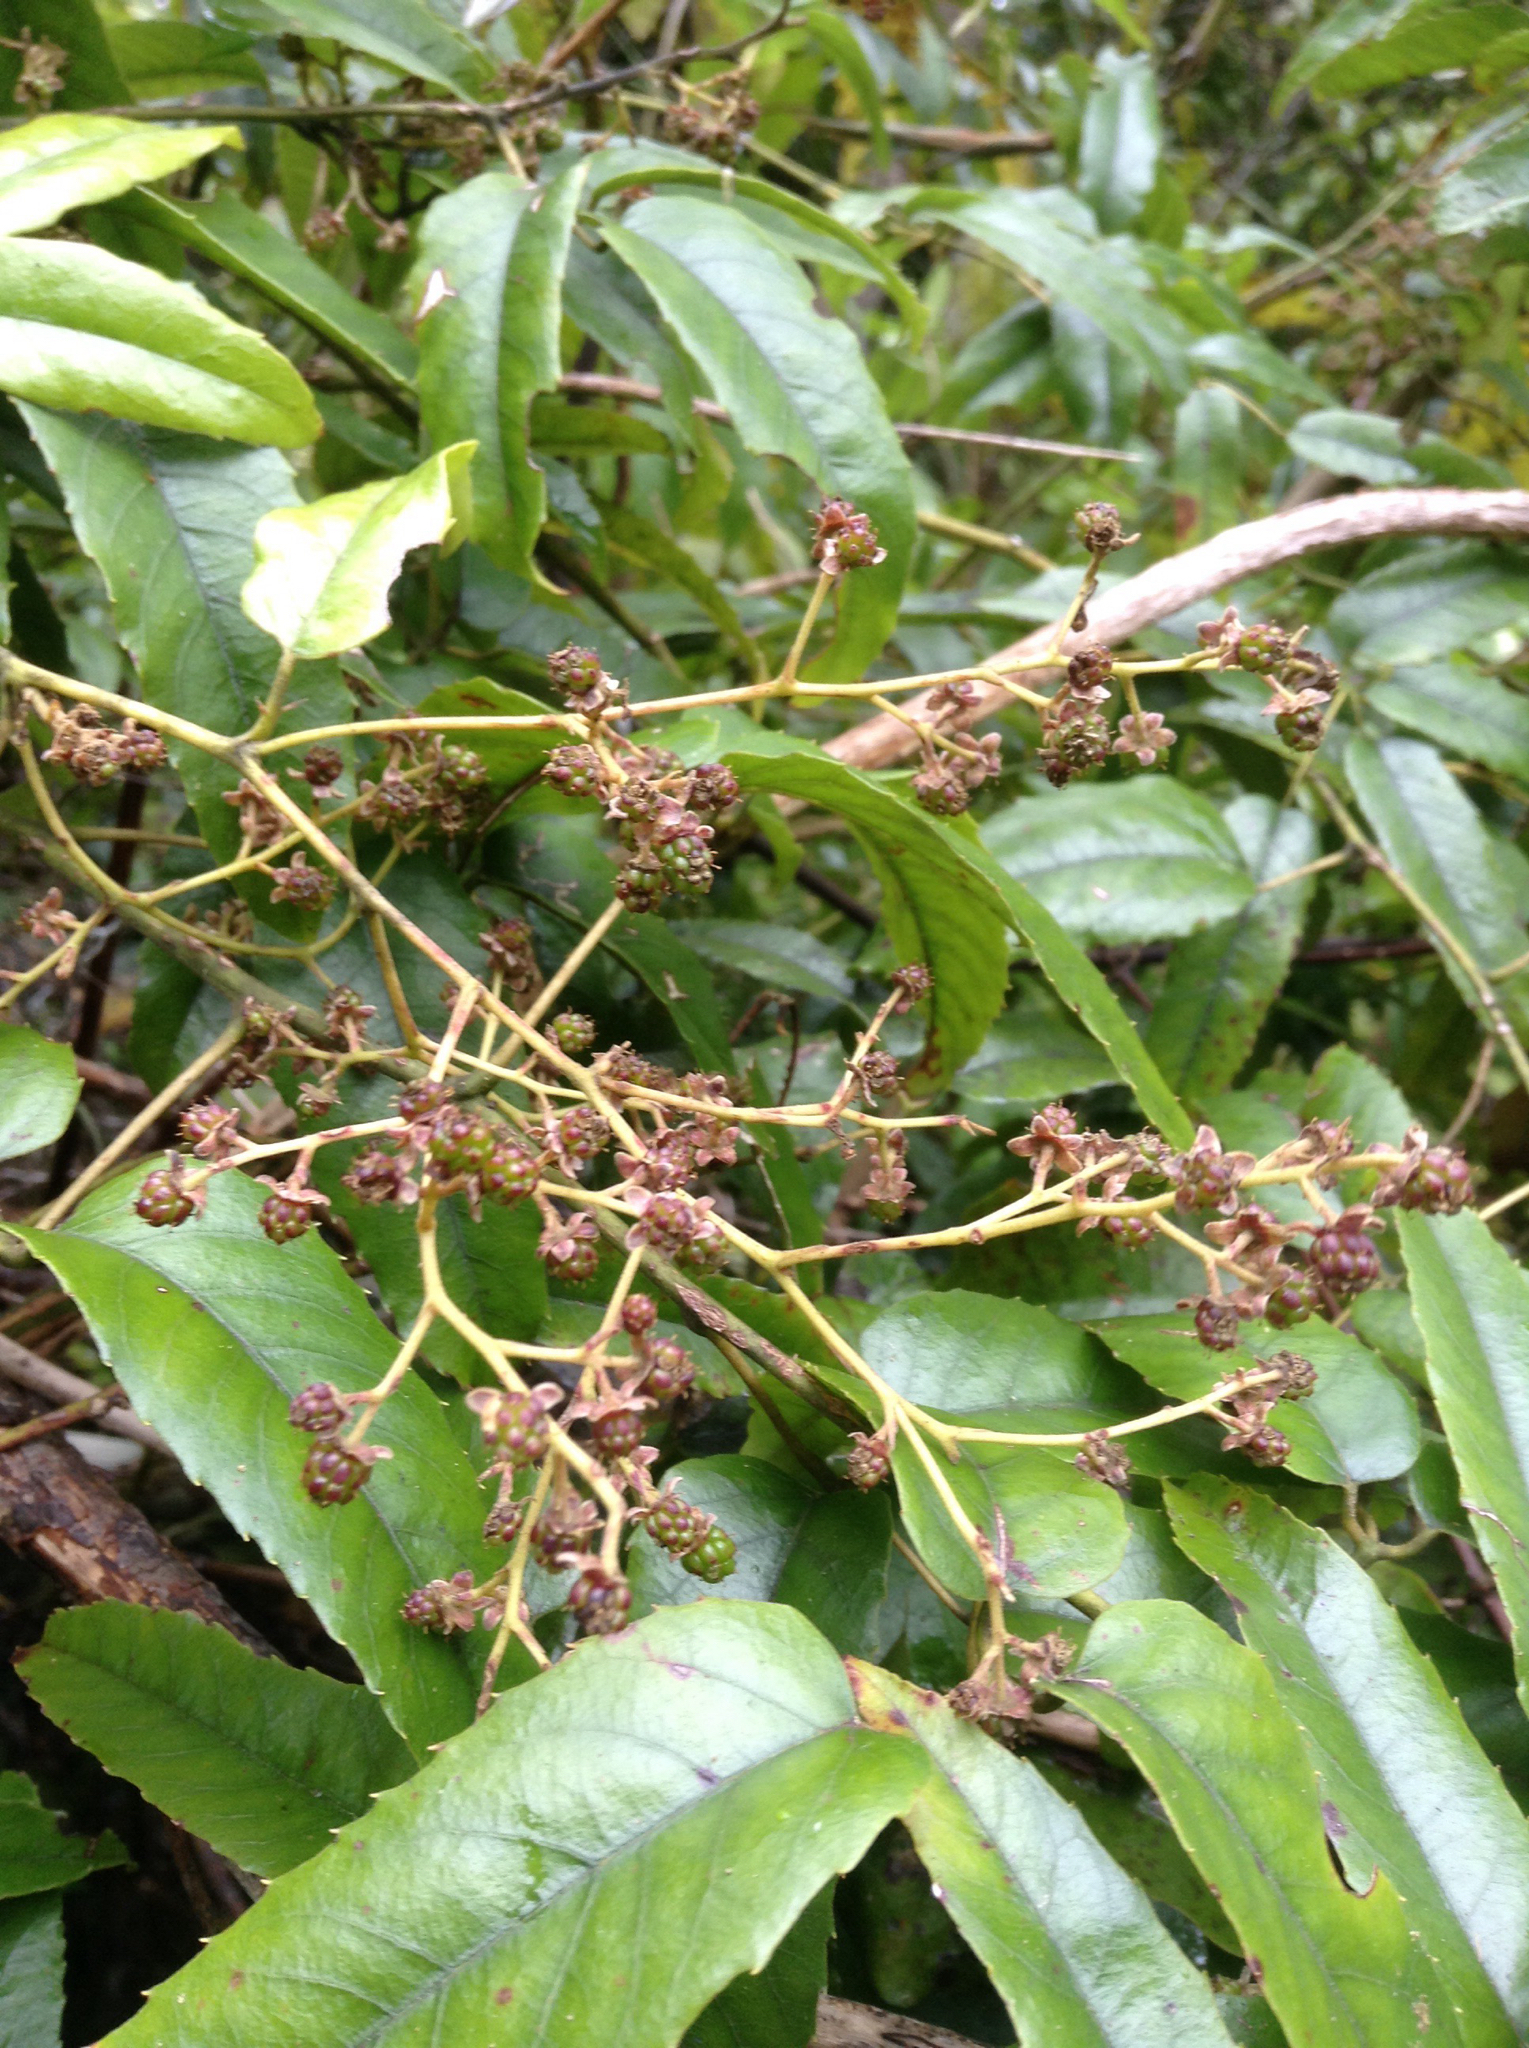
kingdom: Plantae
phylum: Tracheophyta
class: Magnoliopsida
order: Rosales
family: Rosaceae
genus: Rubus
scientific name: Rubus cissoides
